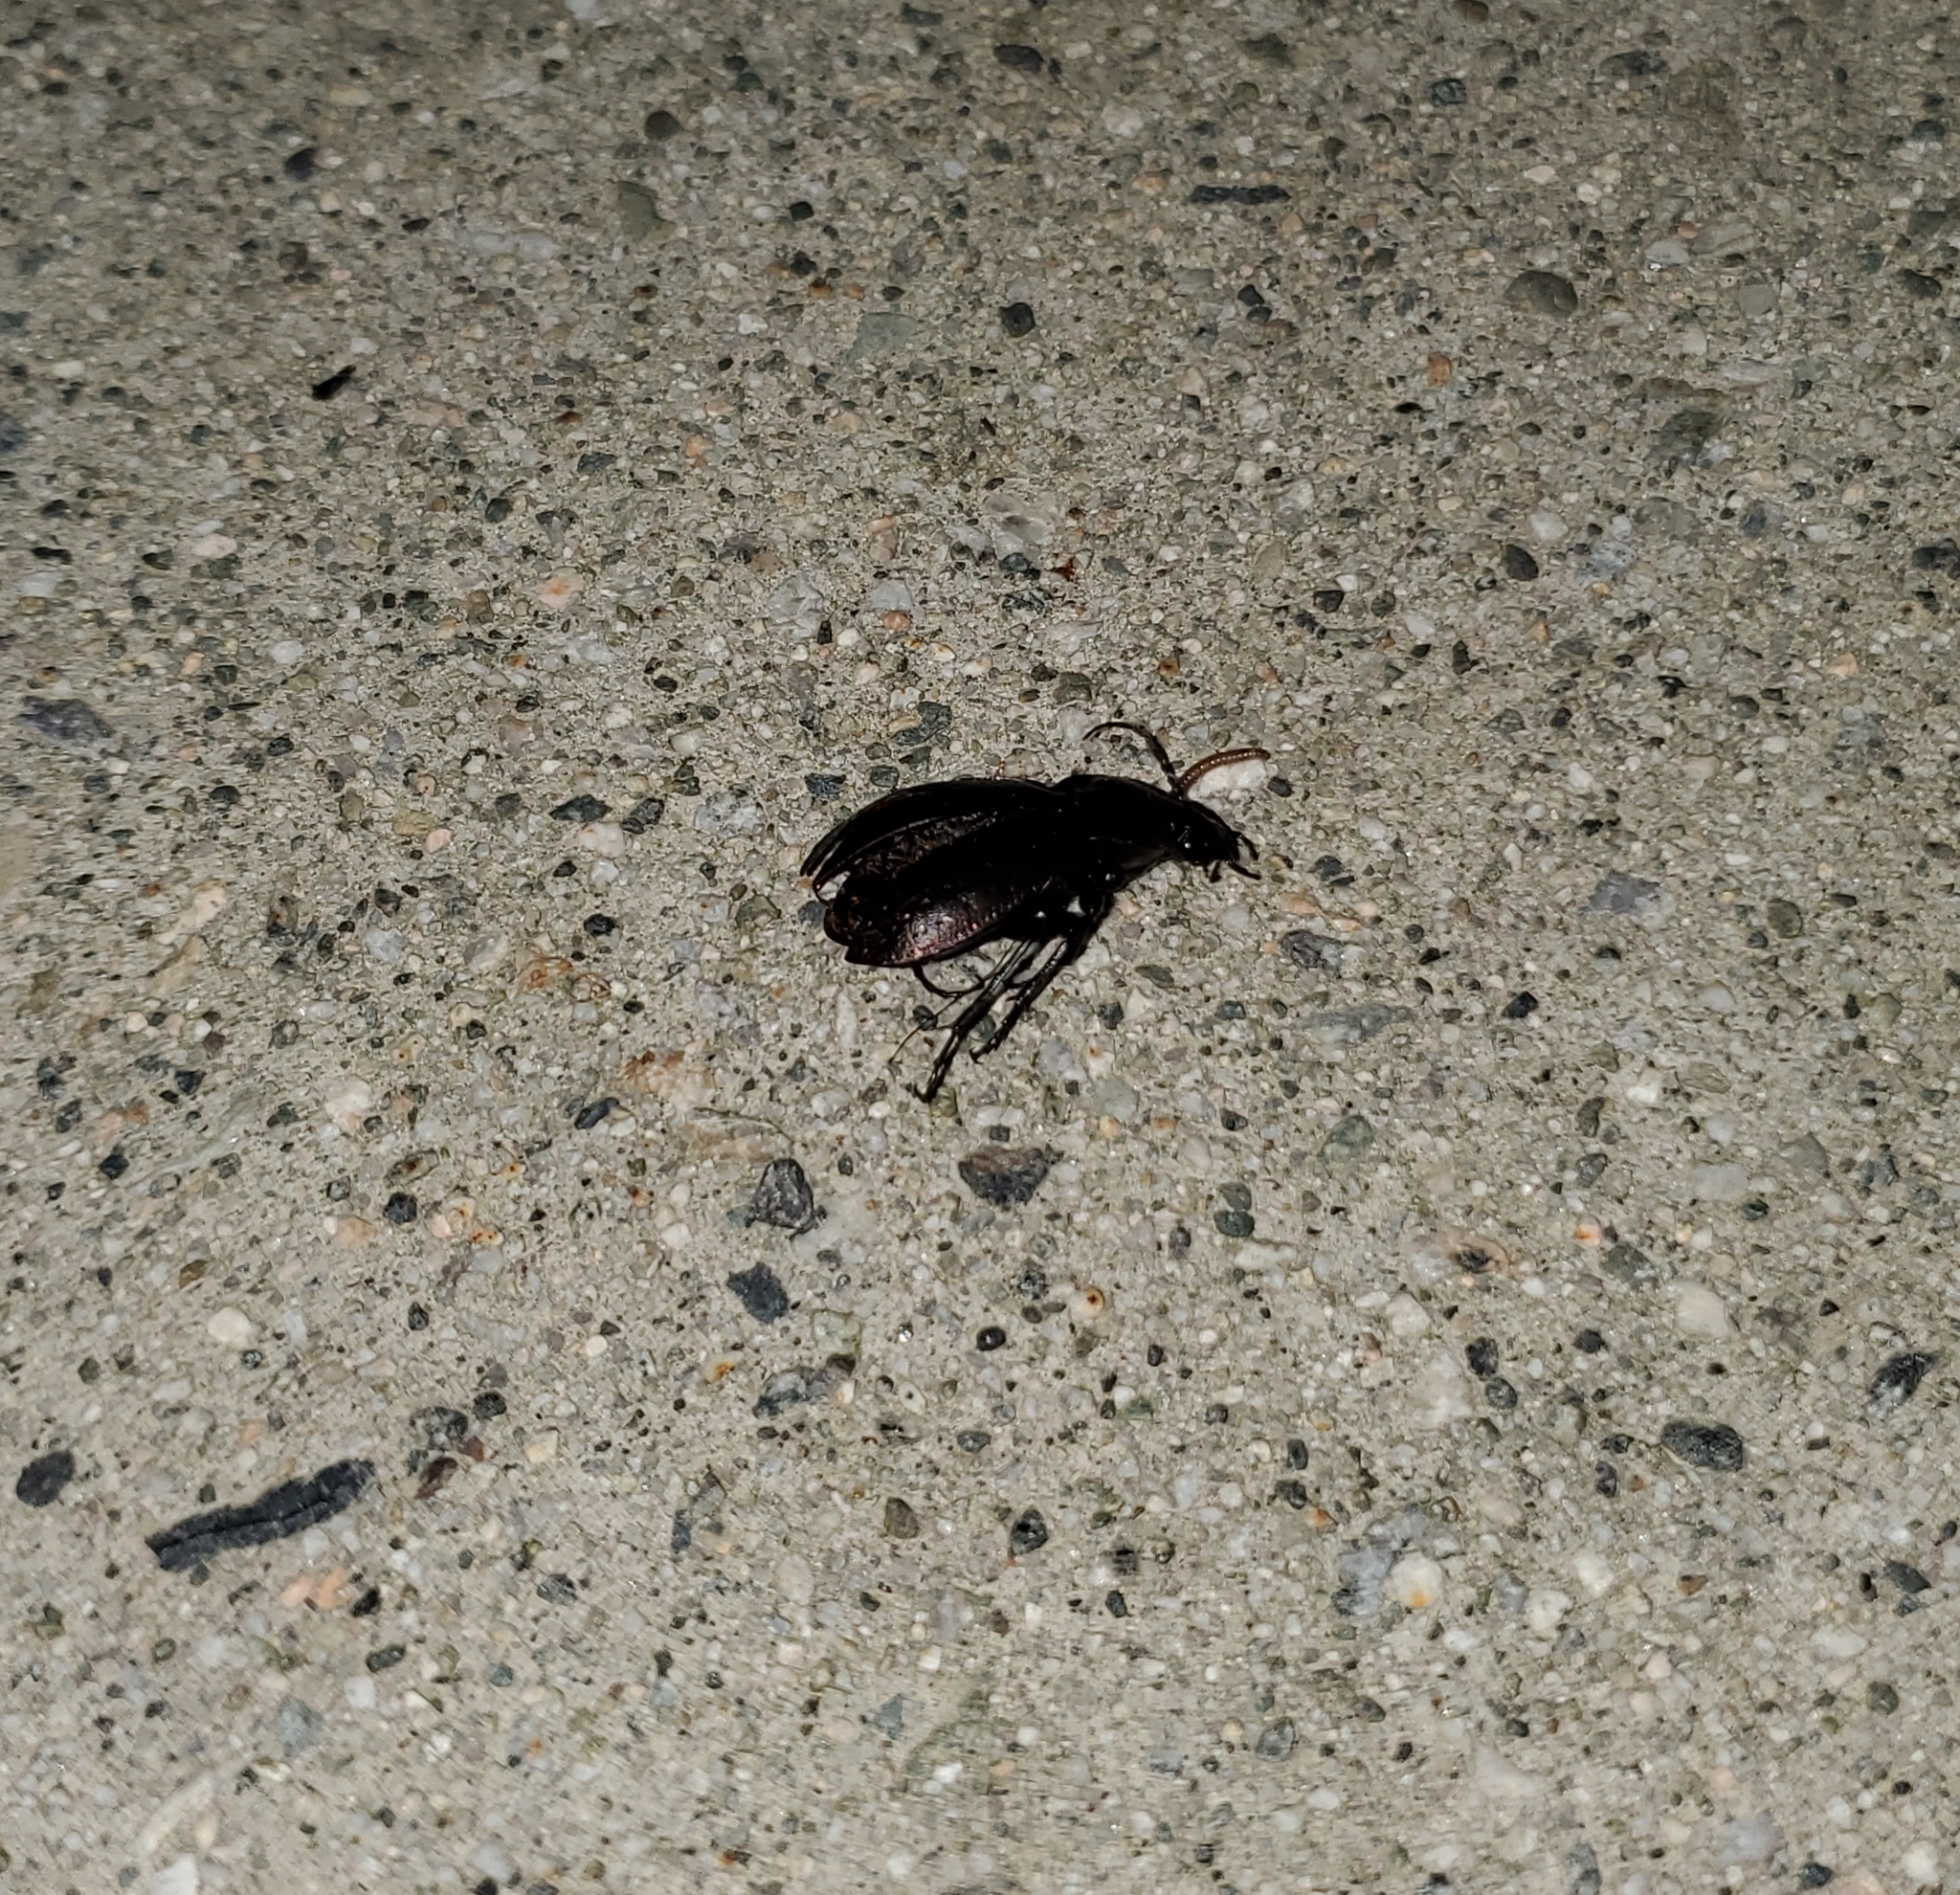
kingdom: Animalia
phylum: Arthropoda
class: Insecta
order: Coleoptera
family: Carabidae
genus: Carabus
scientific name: Carabus nemoralis
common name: European ground beetle
